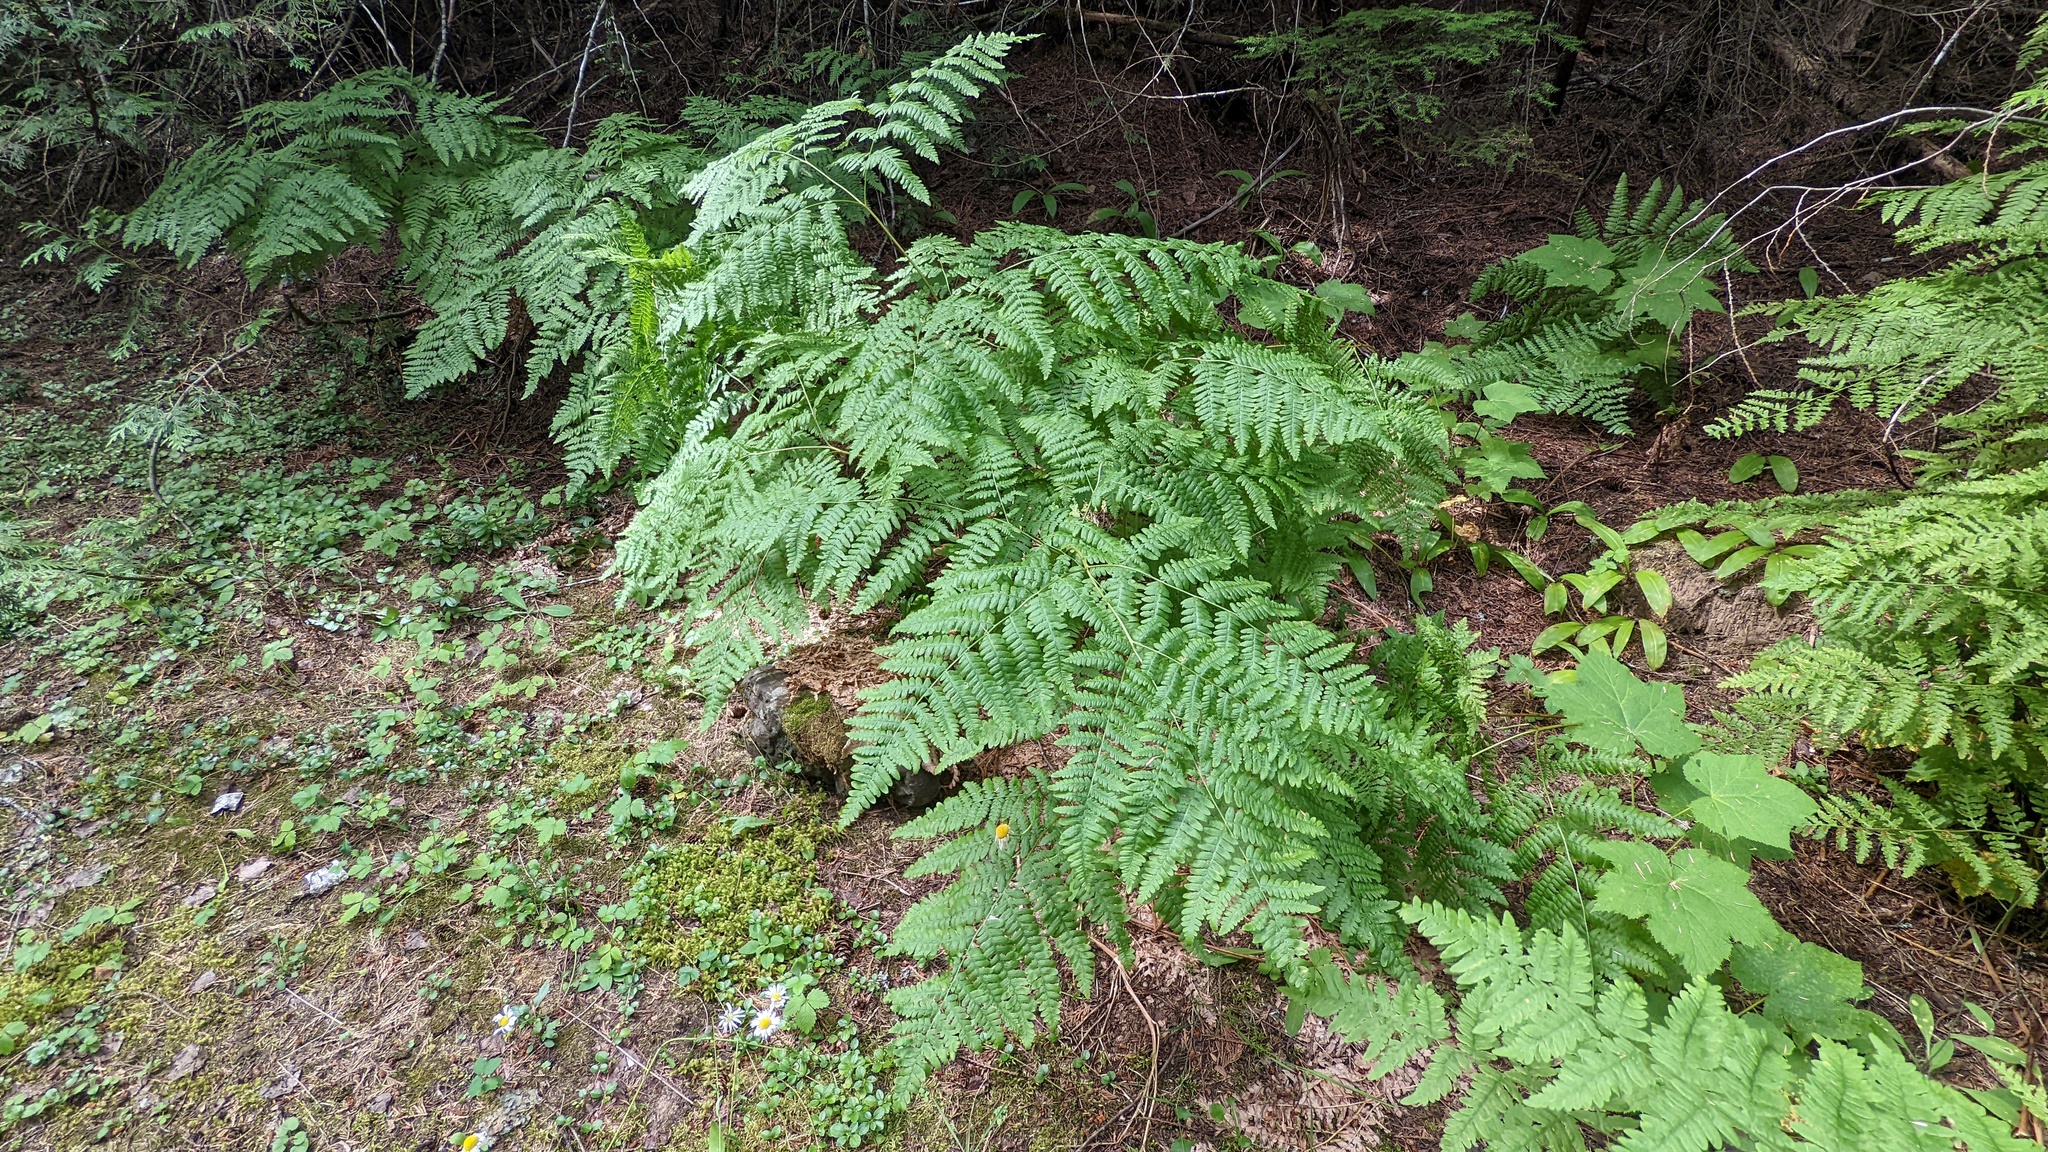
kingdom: Plantae
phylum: Tracheophyta
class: Polypodiopsida
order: Polypodiales
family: Dennstaedtiaceae
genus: Pteridium
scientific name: Pteridium aquilinum
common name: Bracken
